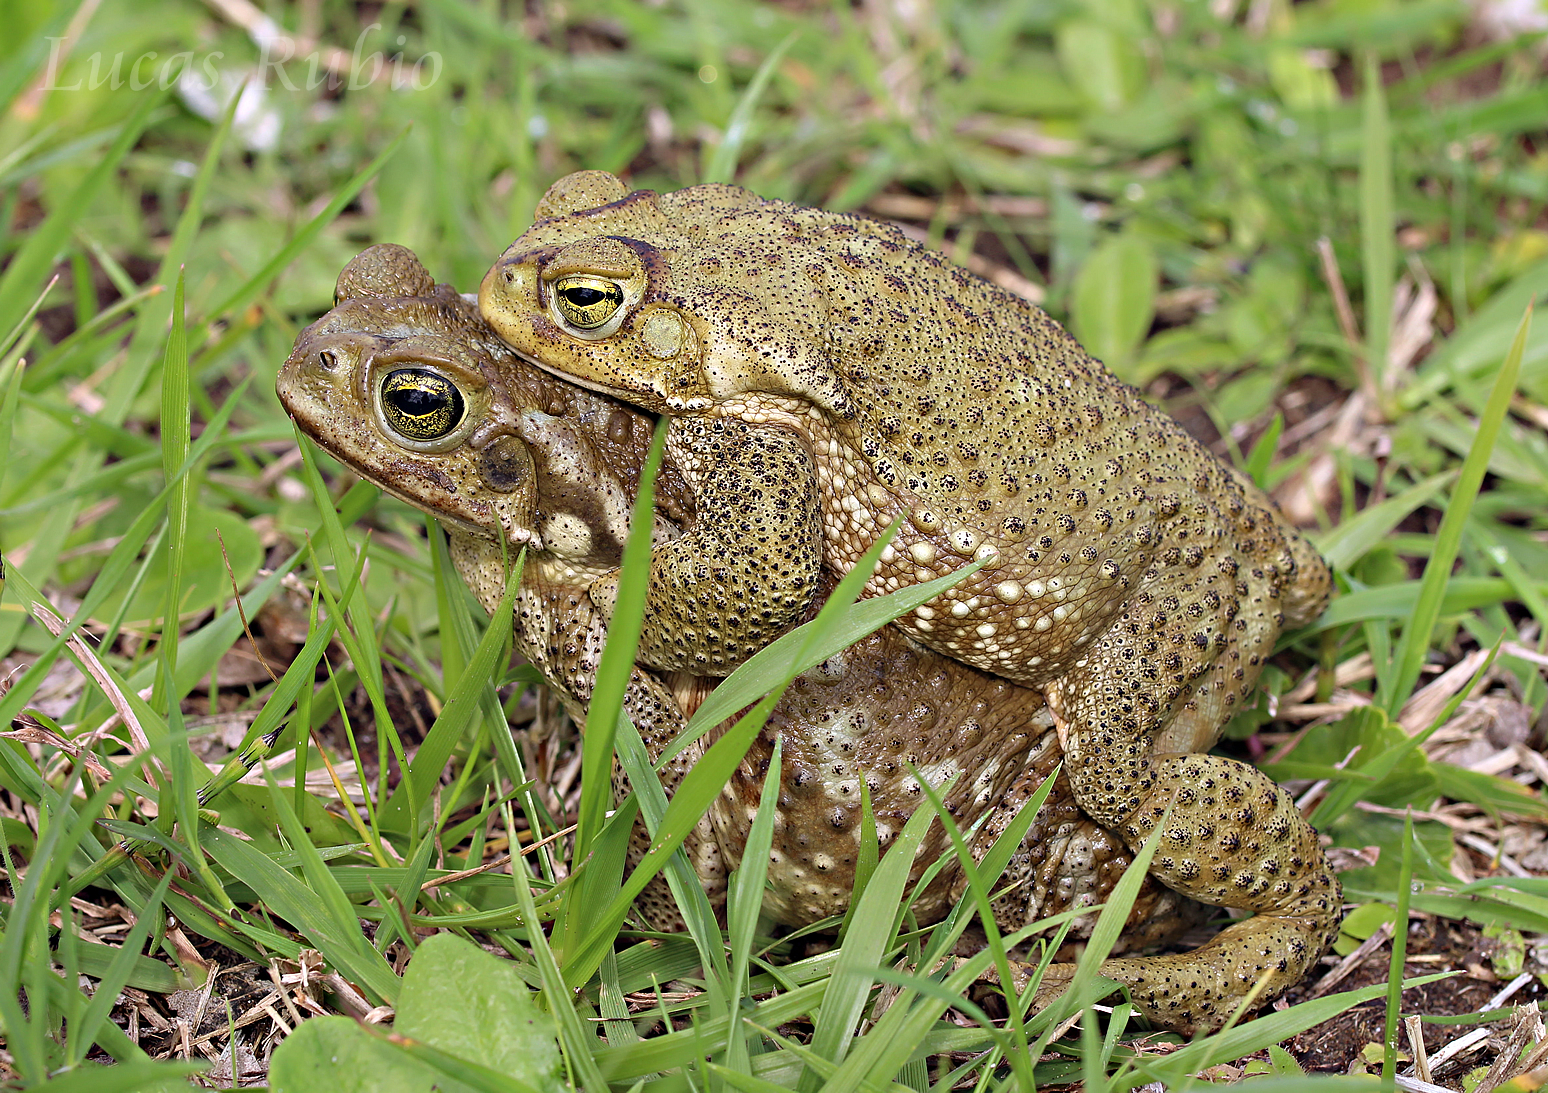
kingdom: Animalia
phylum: Chordata
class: Amphibia
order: Anura
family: Bufonidae
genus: Rhinella
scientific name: Rhinella arenarum
